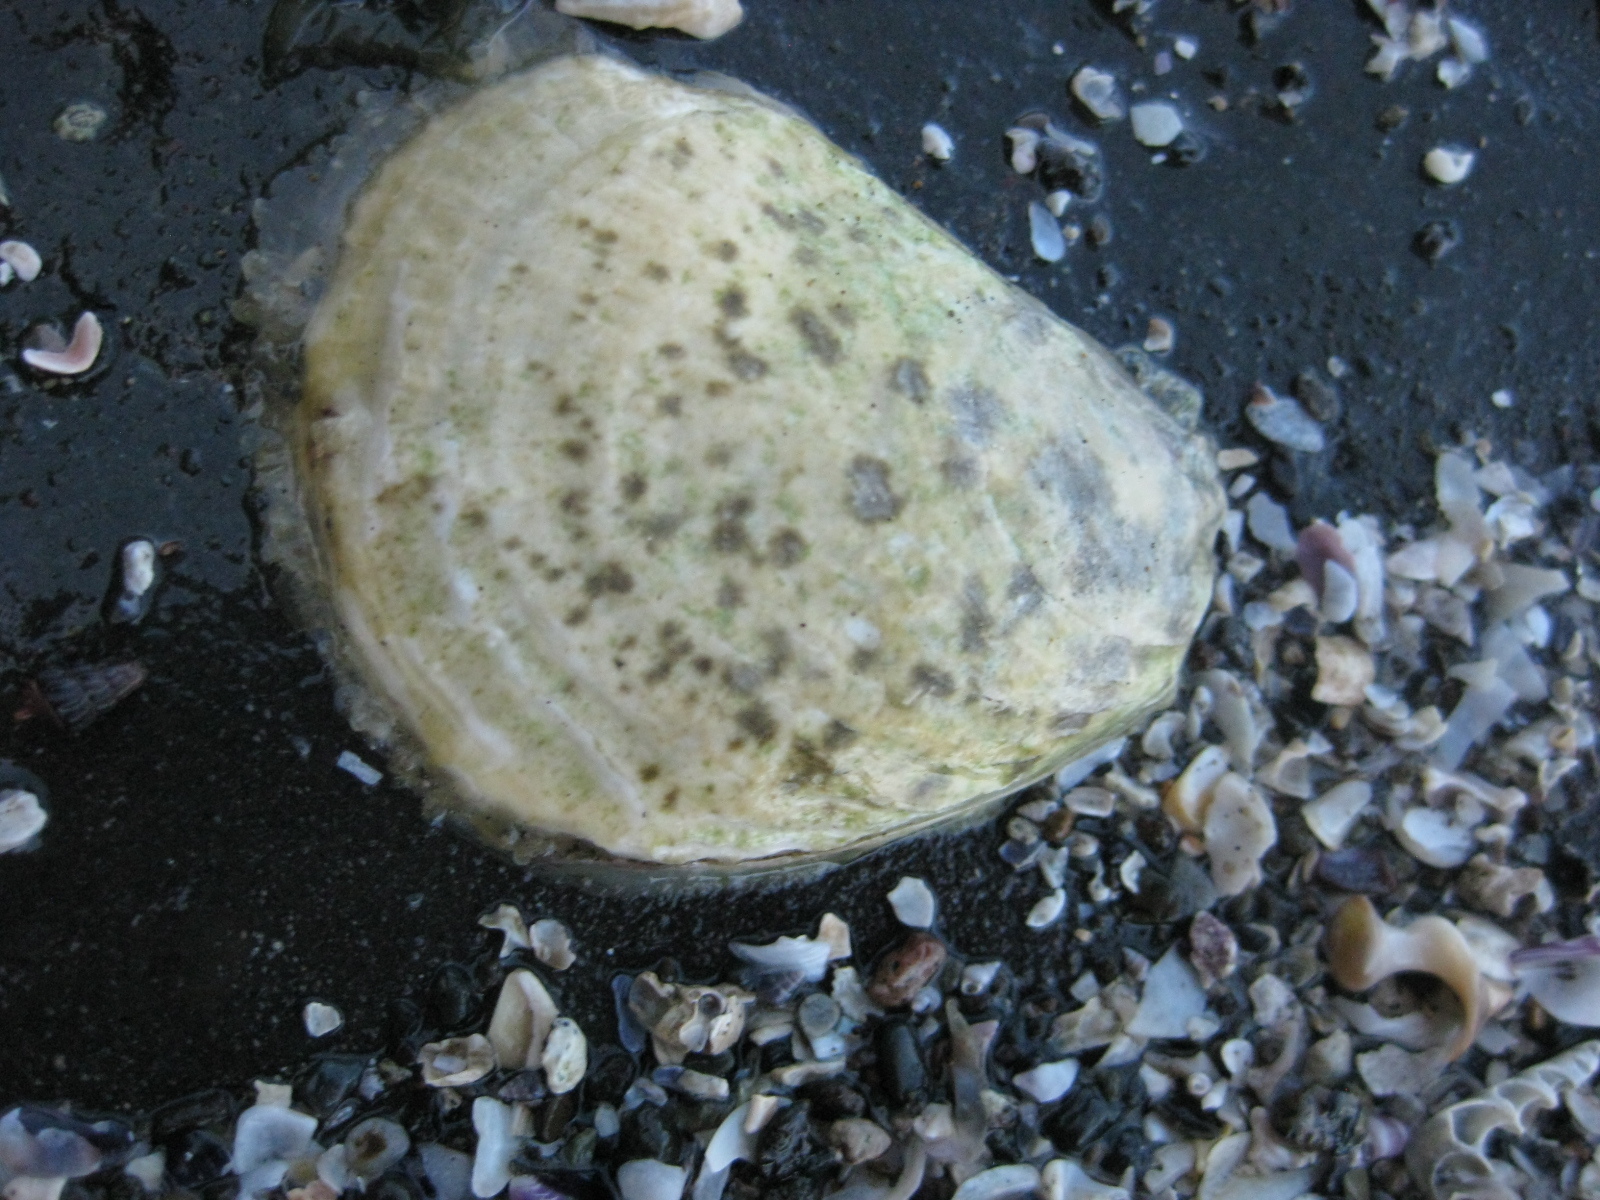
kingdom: Animalia
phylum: Mollusca
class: Bivalvia
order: Ostreida
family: Ostreidae
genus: Ostrea
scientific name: Ostrea chilensis
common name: Chilean oyster
